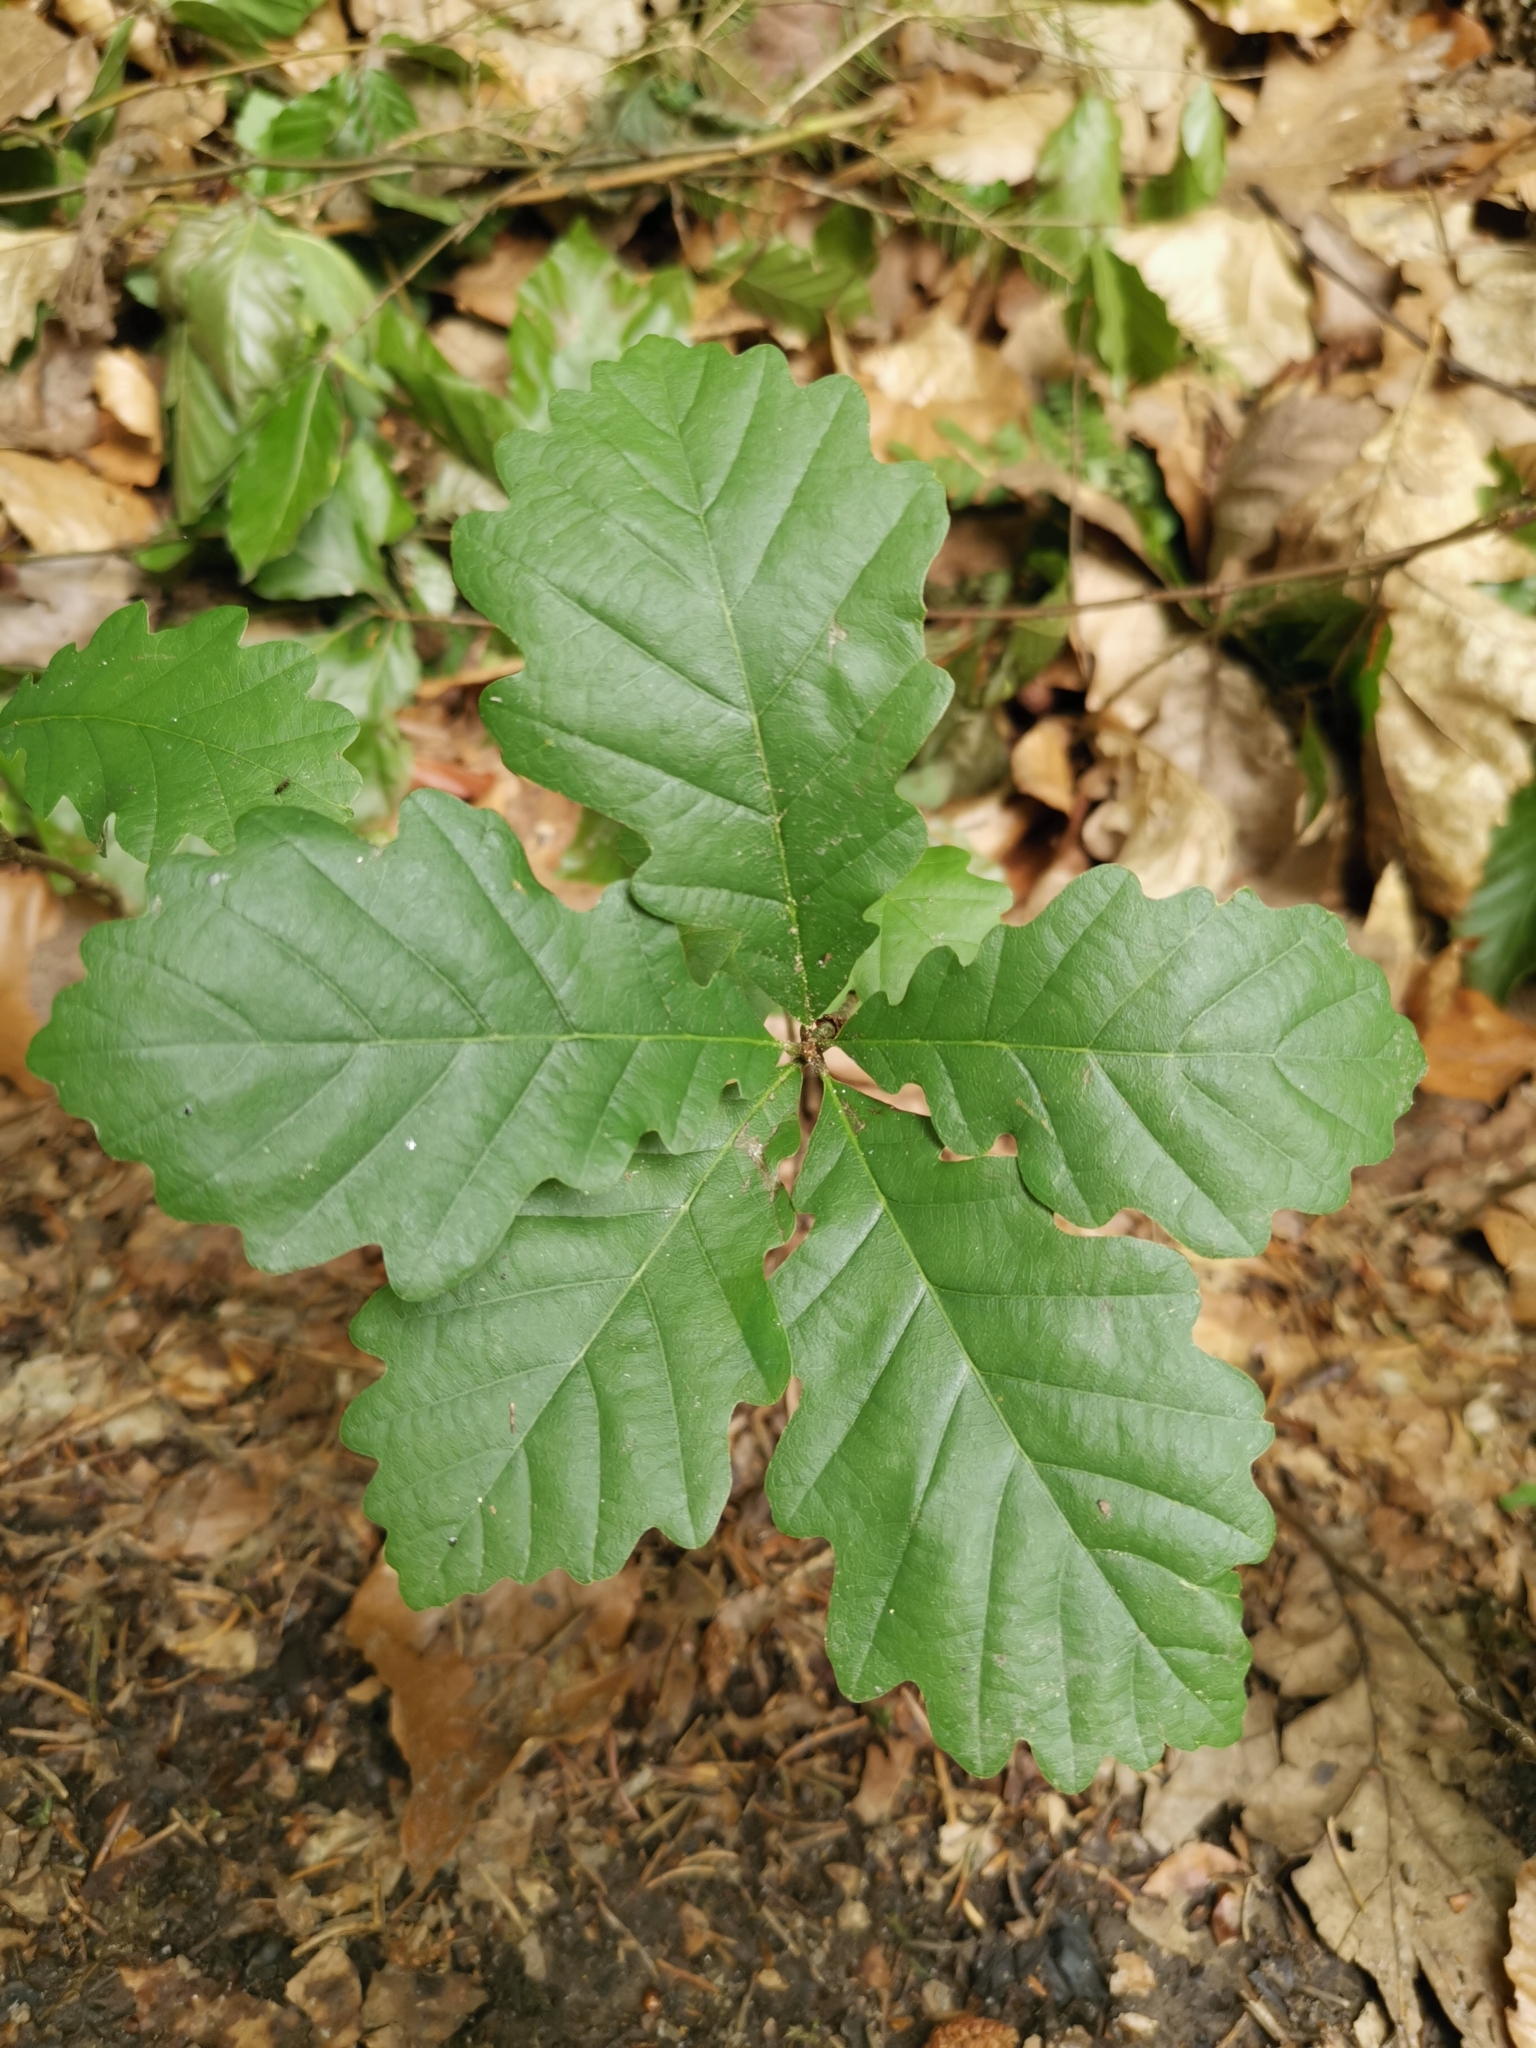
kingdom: Plantae
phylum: Tracheophyta
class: Magnoliopsida
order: Fagales
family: Fagaceae
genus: Quercus
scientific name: Quercus petraea
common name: Sessile oak
